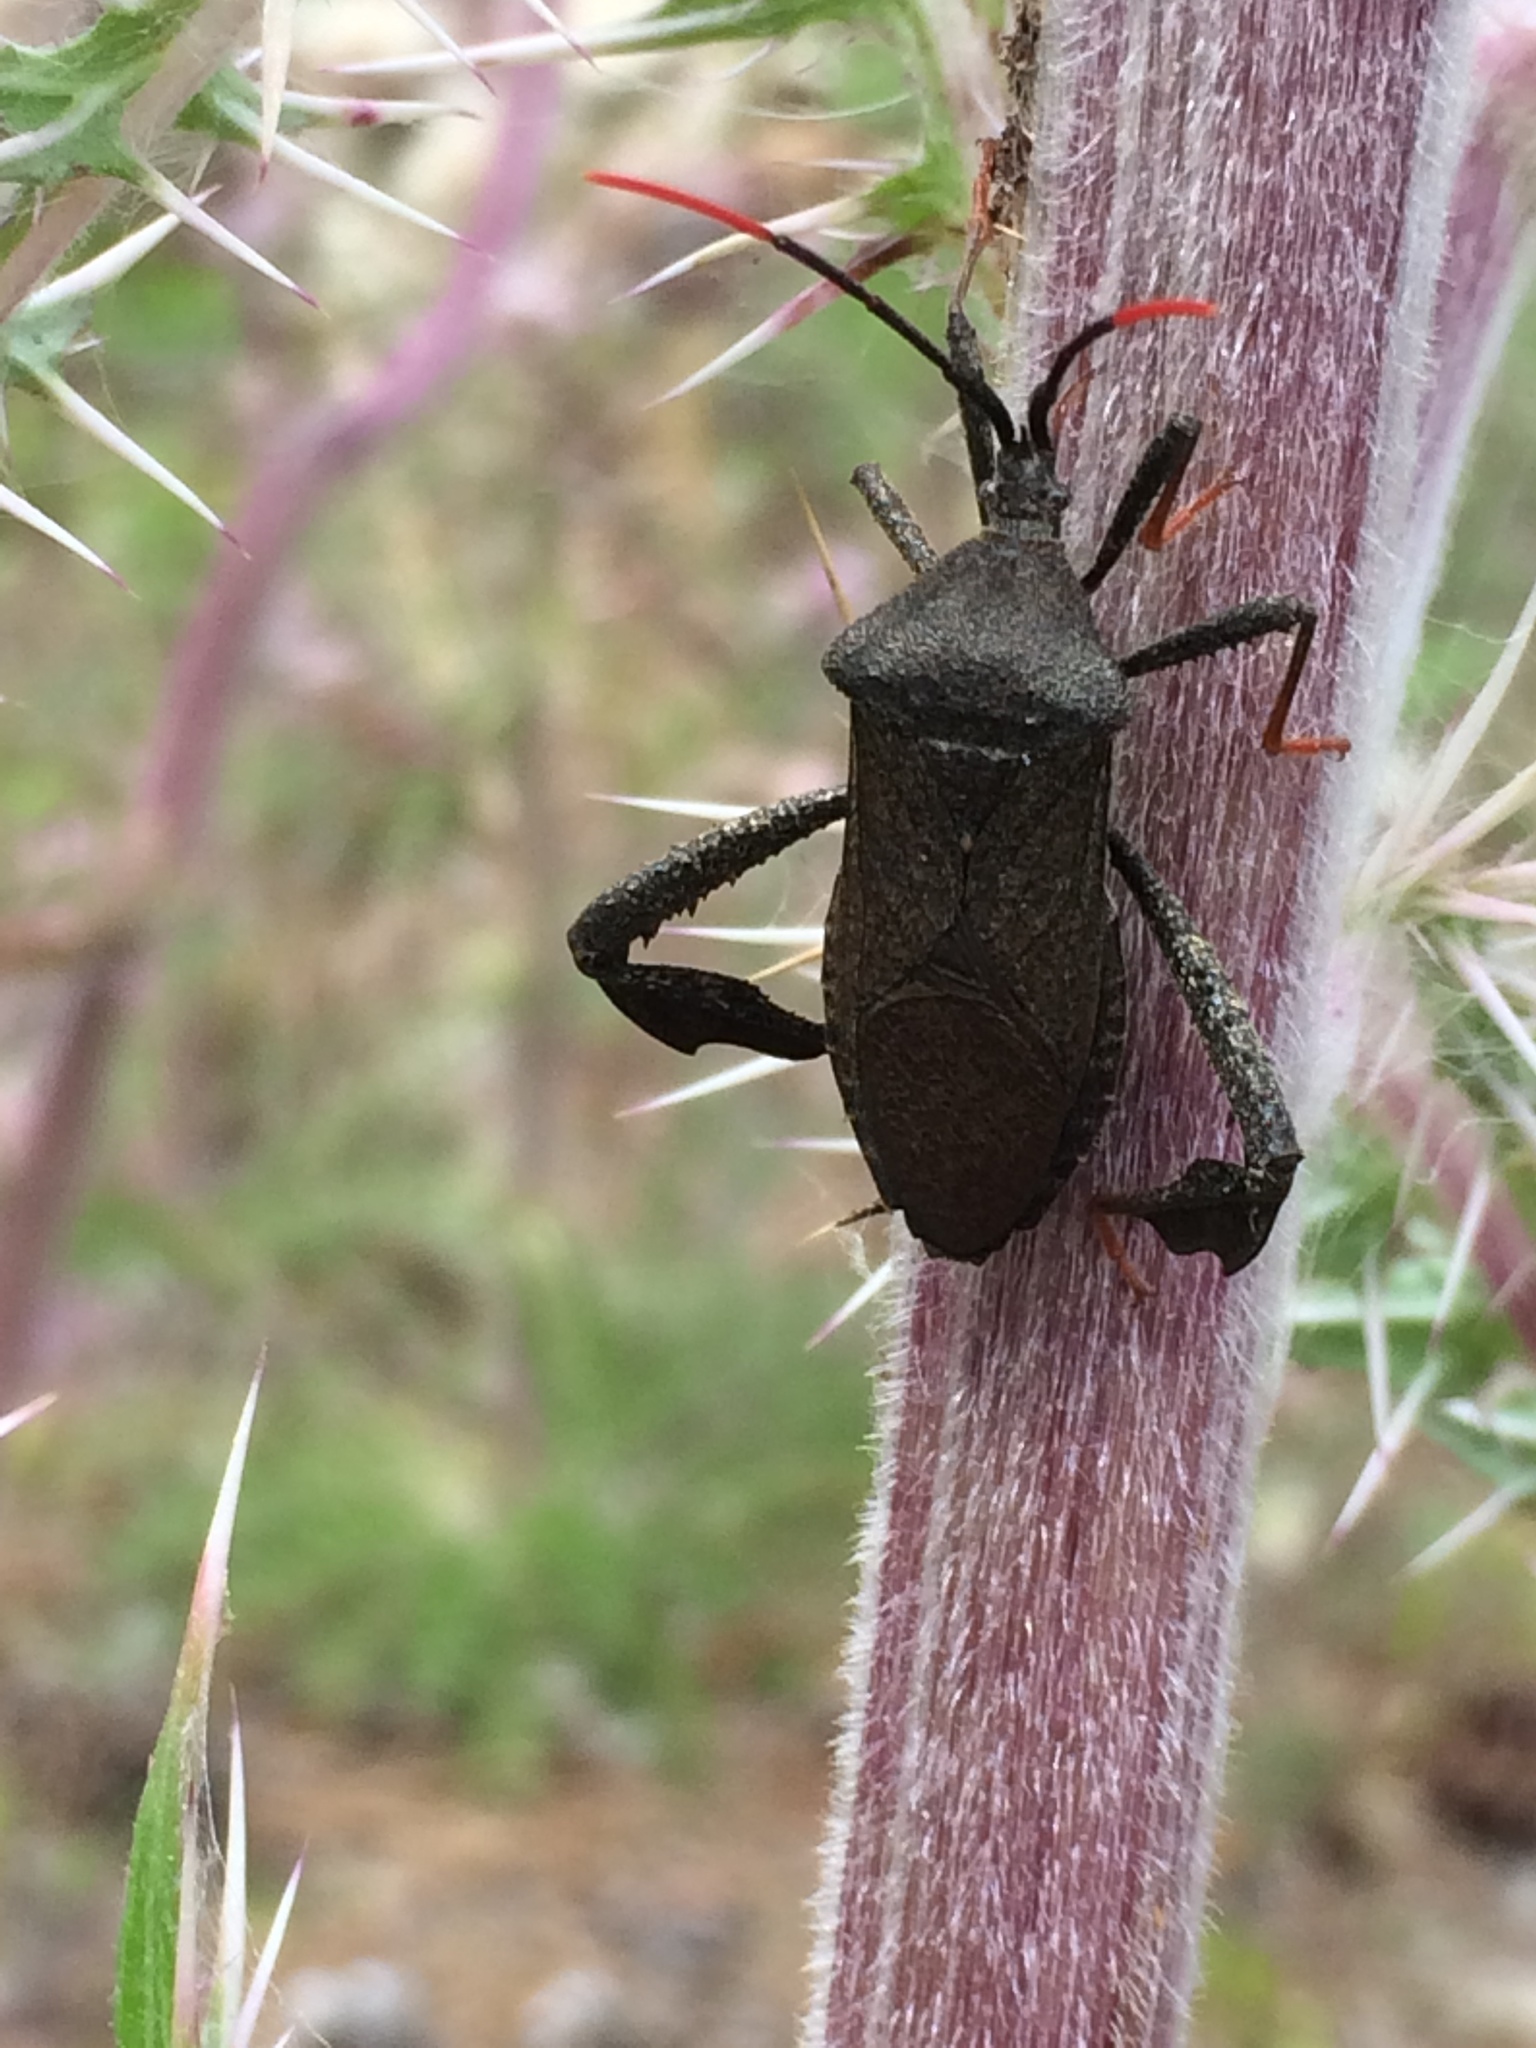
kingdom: Animalia
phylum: Arthropoda
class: Insecta
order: Hemiptera
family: Coreidae
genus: Acanthocephala
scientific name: Acanthocephala terminalis
